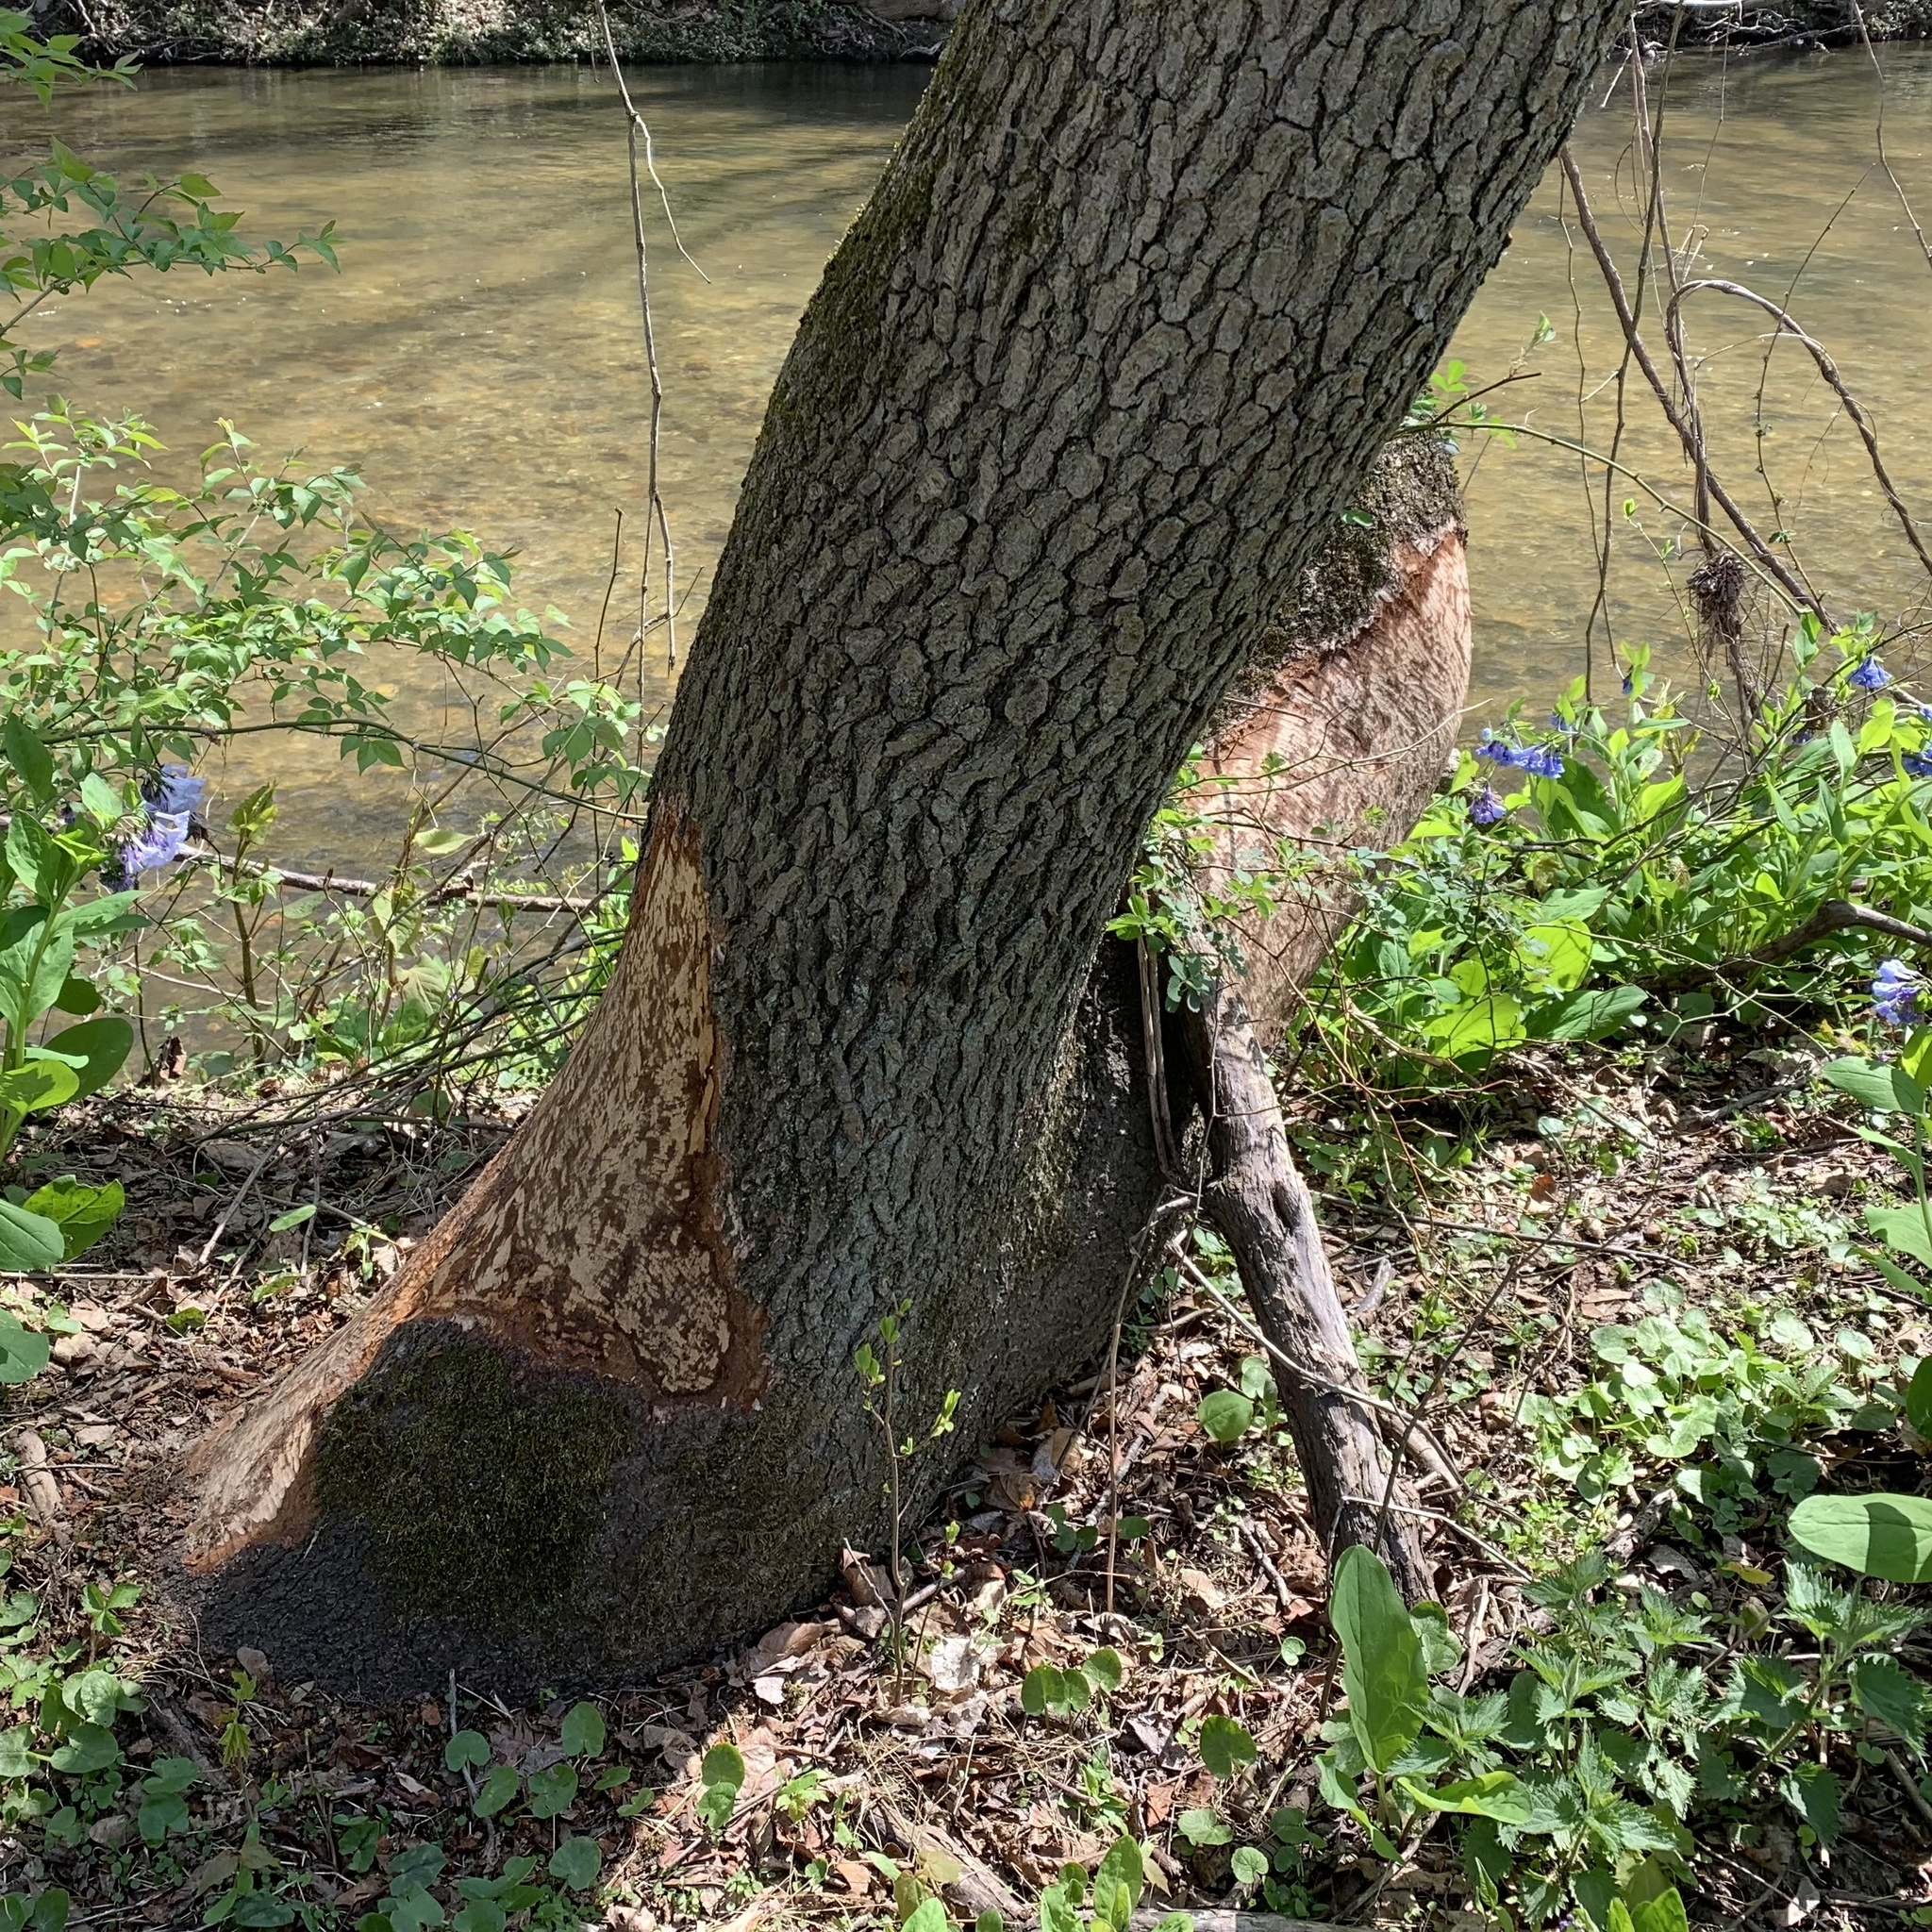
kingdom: Animalia
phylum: Chordata
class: Mammalia
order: Rodentia
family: Castoridae
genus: Castor
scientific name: Castor canadensis
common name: American beaver
